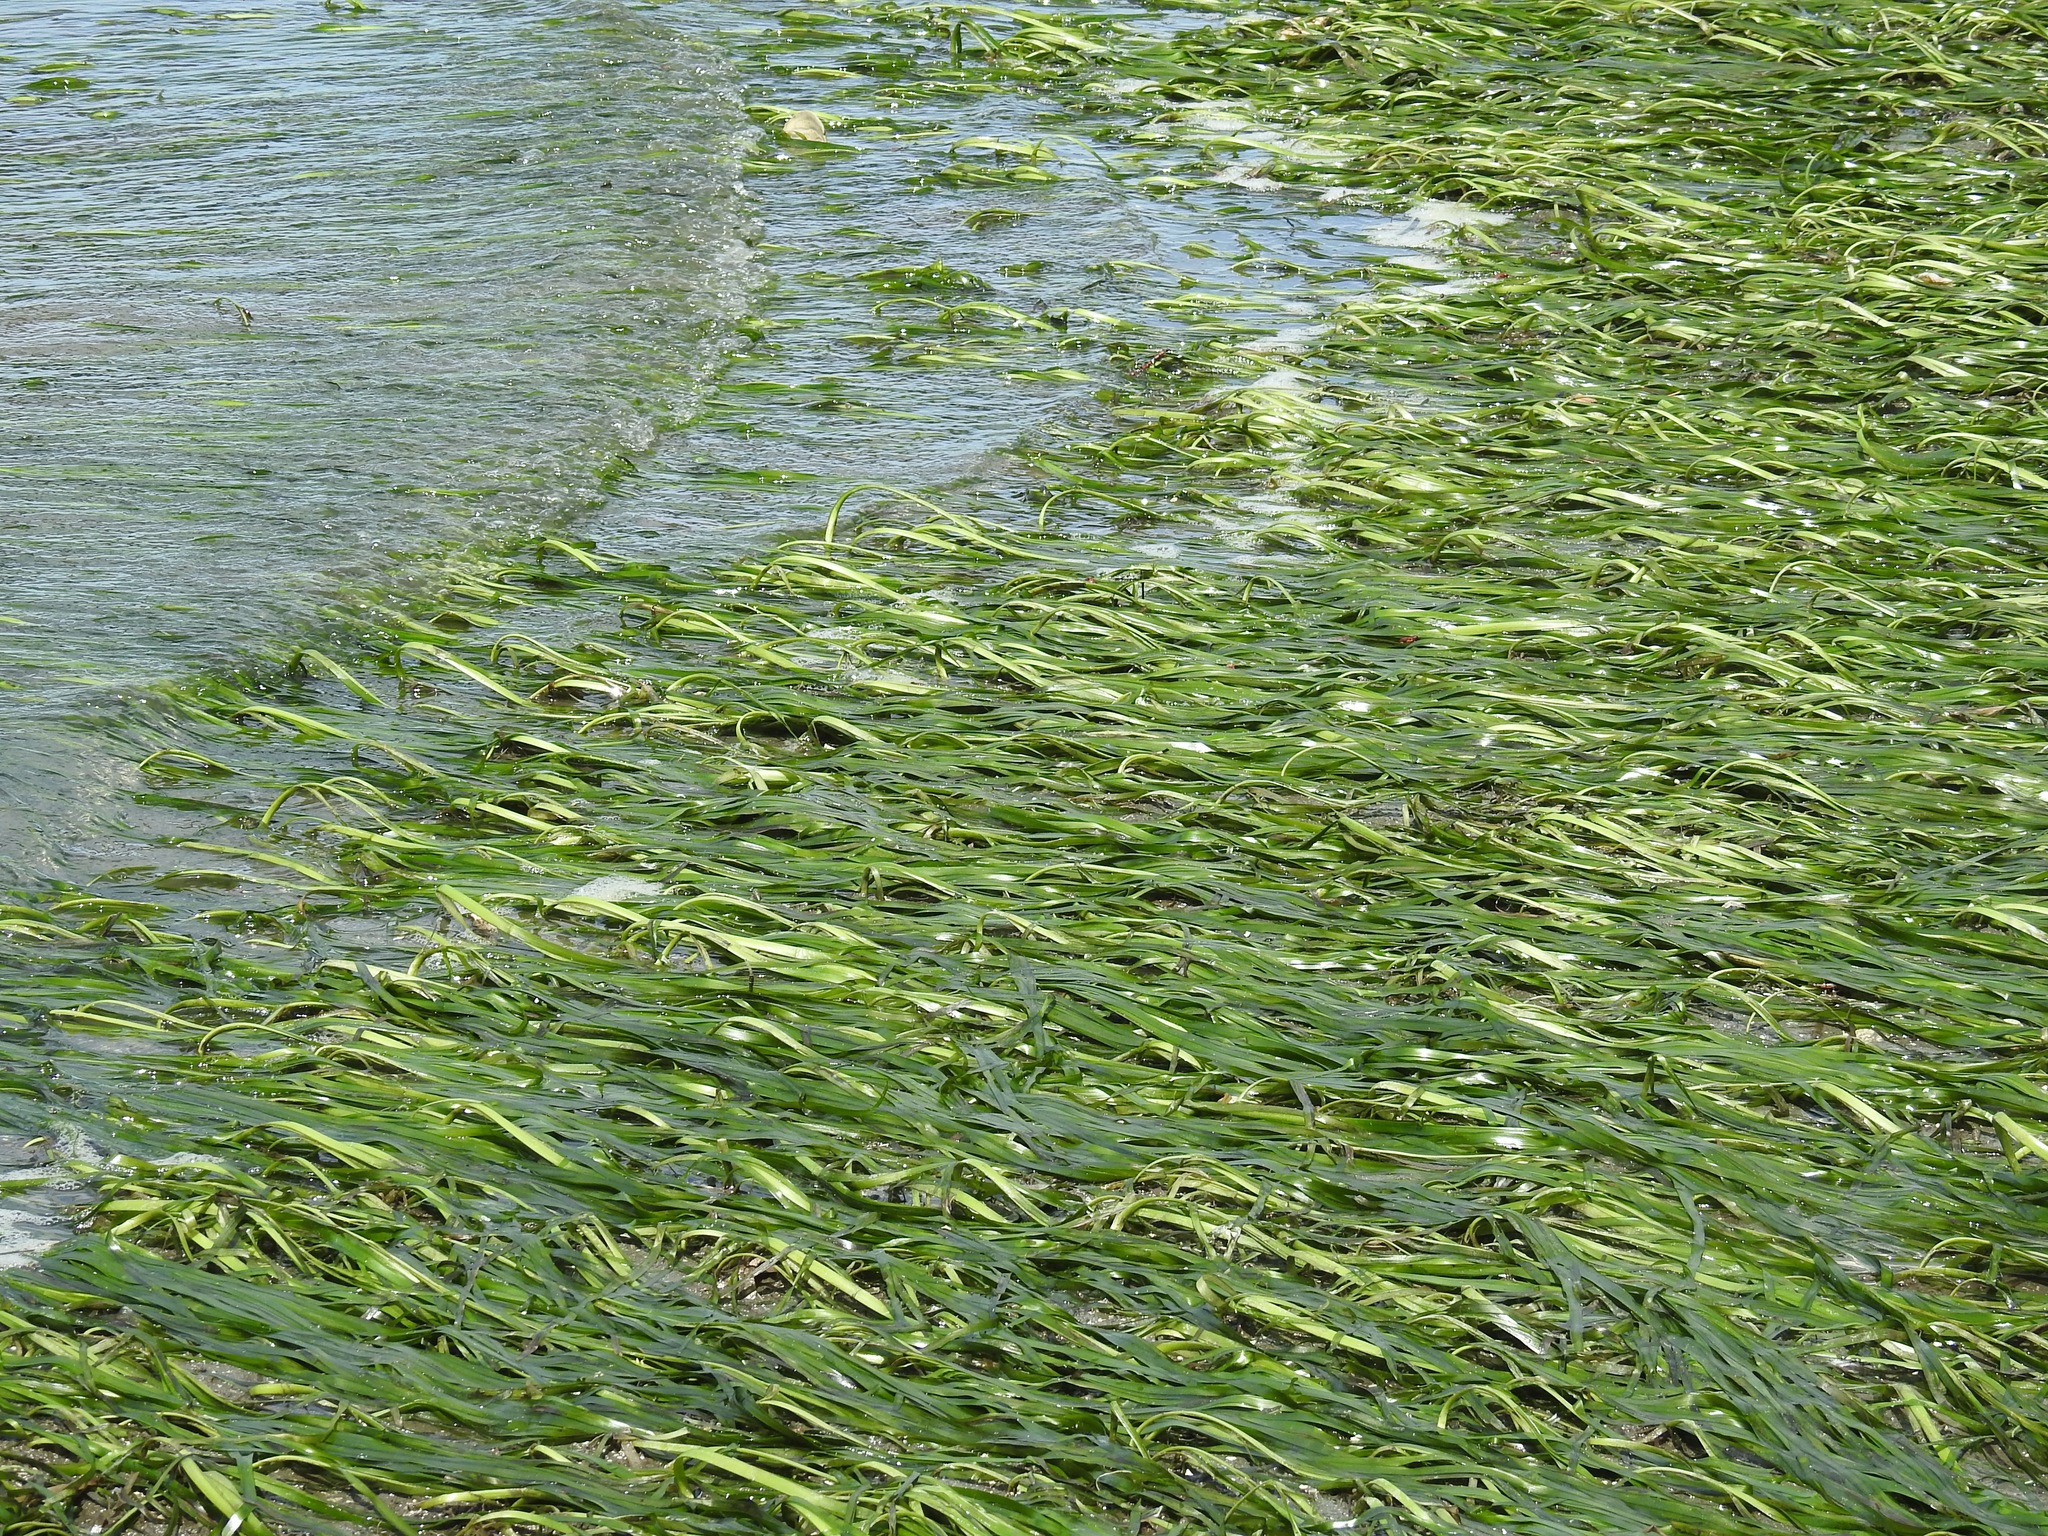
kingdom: Plantae
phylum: Tracheophyta
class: Liliopsida
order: Alismatales
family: Zosteraceae
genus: Zostera
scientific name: Zostera marina
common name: Eelgrass
